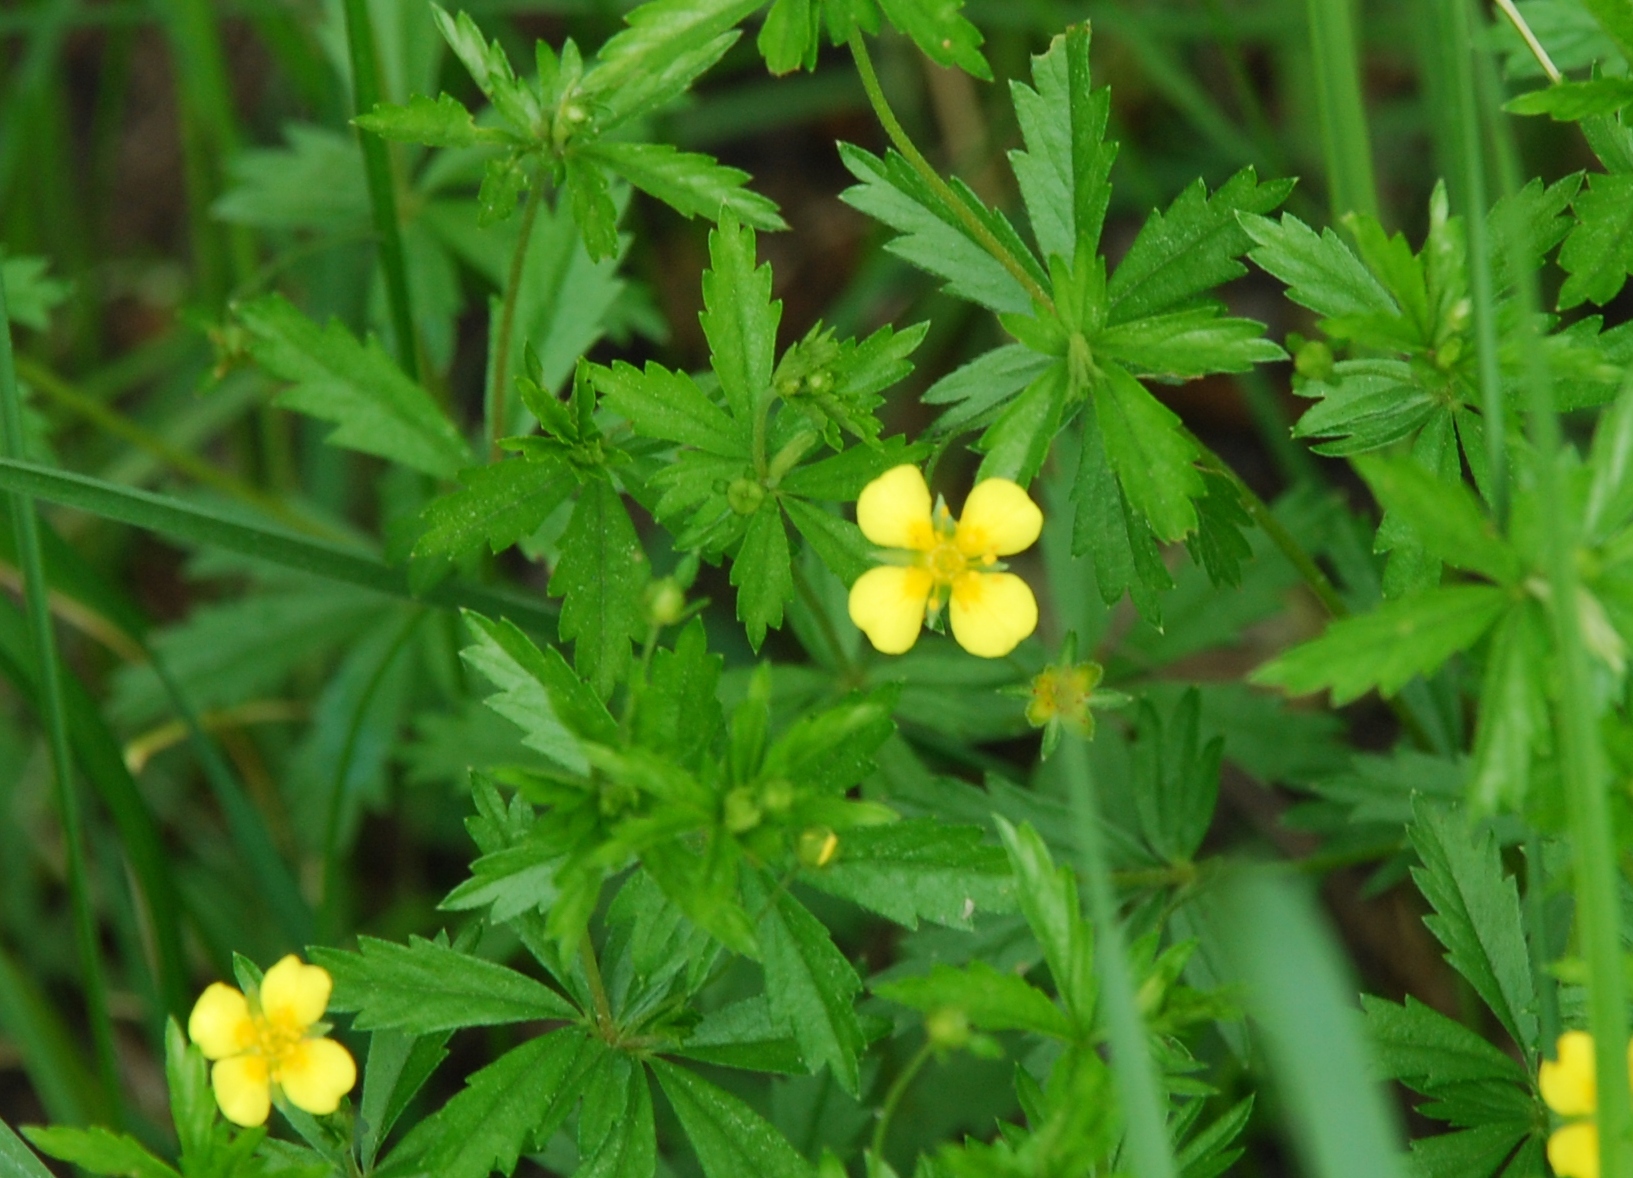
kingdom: Plantae
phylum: Tracheophyta
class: Magnoliopsida
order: Rosales
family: Rosaceae
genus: Potentilla
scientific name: Potentilla erecta
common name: Tormentil
